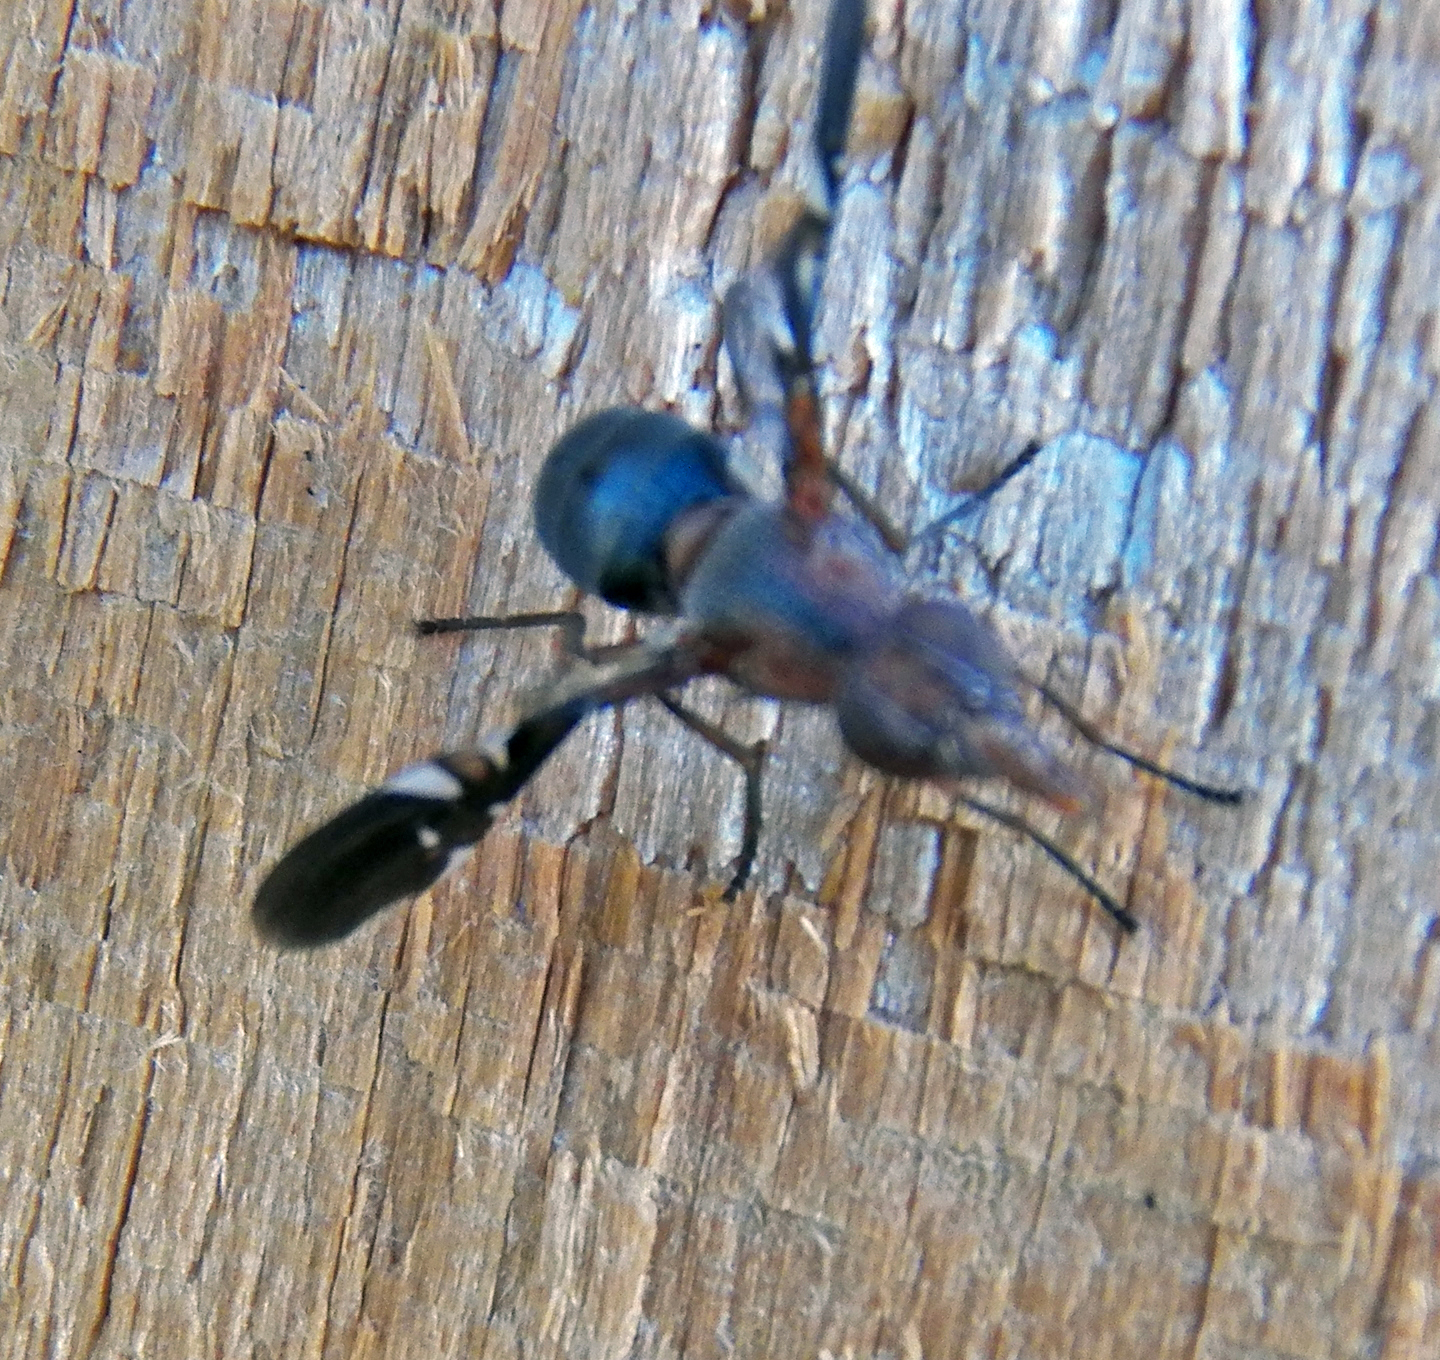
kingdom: Animalia
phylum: Arthropoda
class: Insecta
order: Diptera
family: Ulidiidae
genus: Delphinia
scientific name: Delphinia picta
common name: Common picture-winged fly
